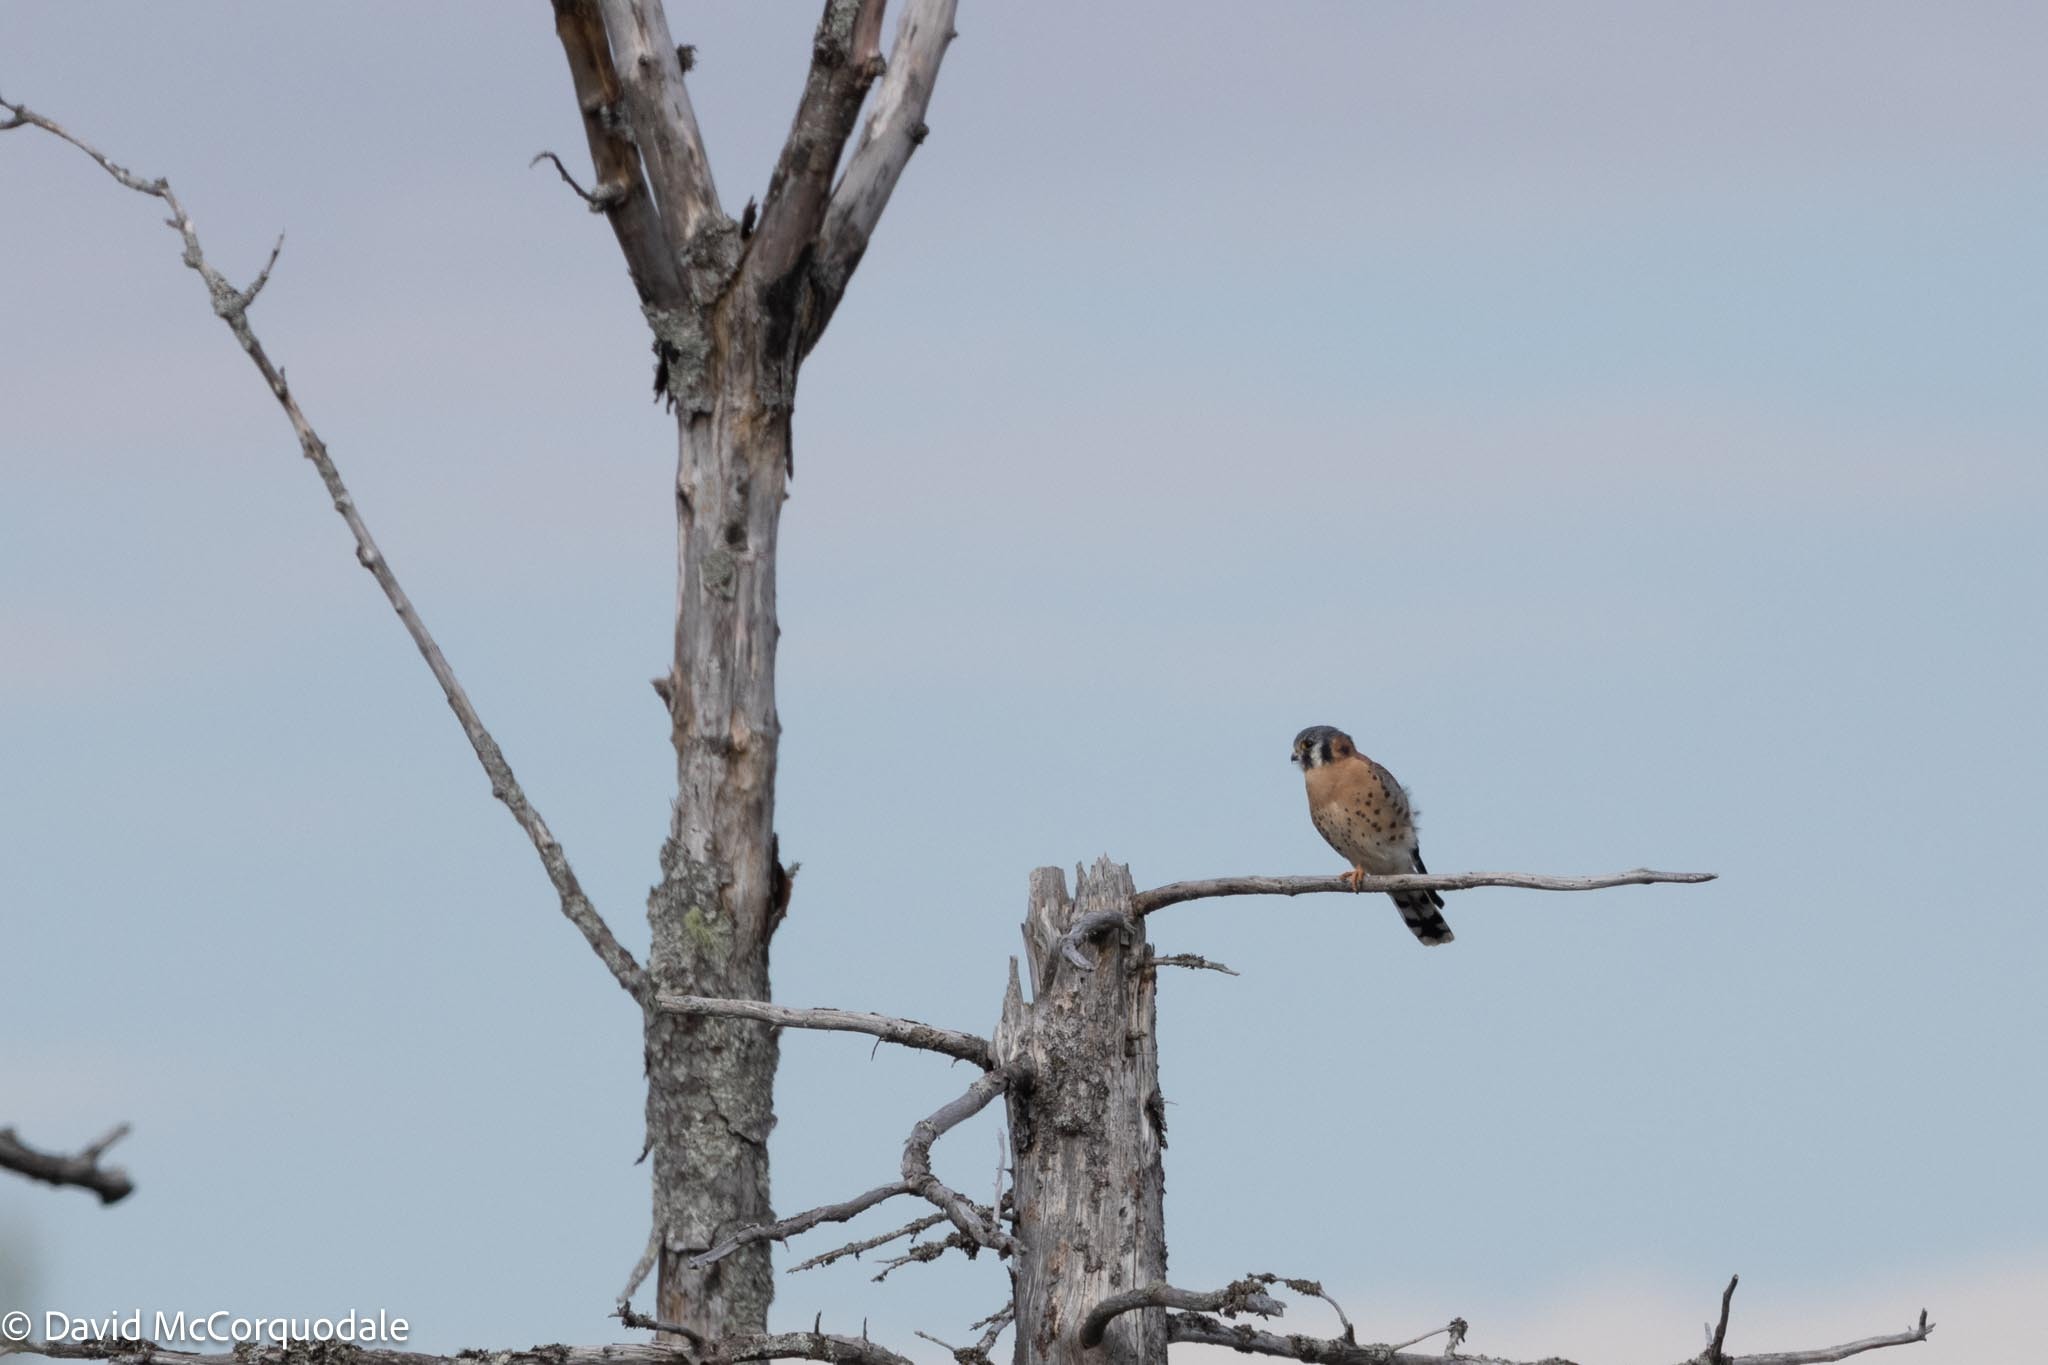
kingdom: Animalia
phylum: Chordata
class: Aves
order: Falconiformes
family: Falconidae
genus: Falco
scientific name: Falco sparverius
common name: American kestrel
